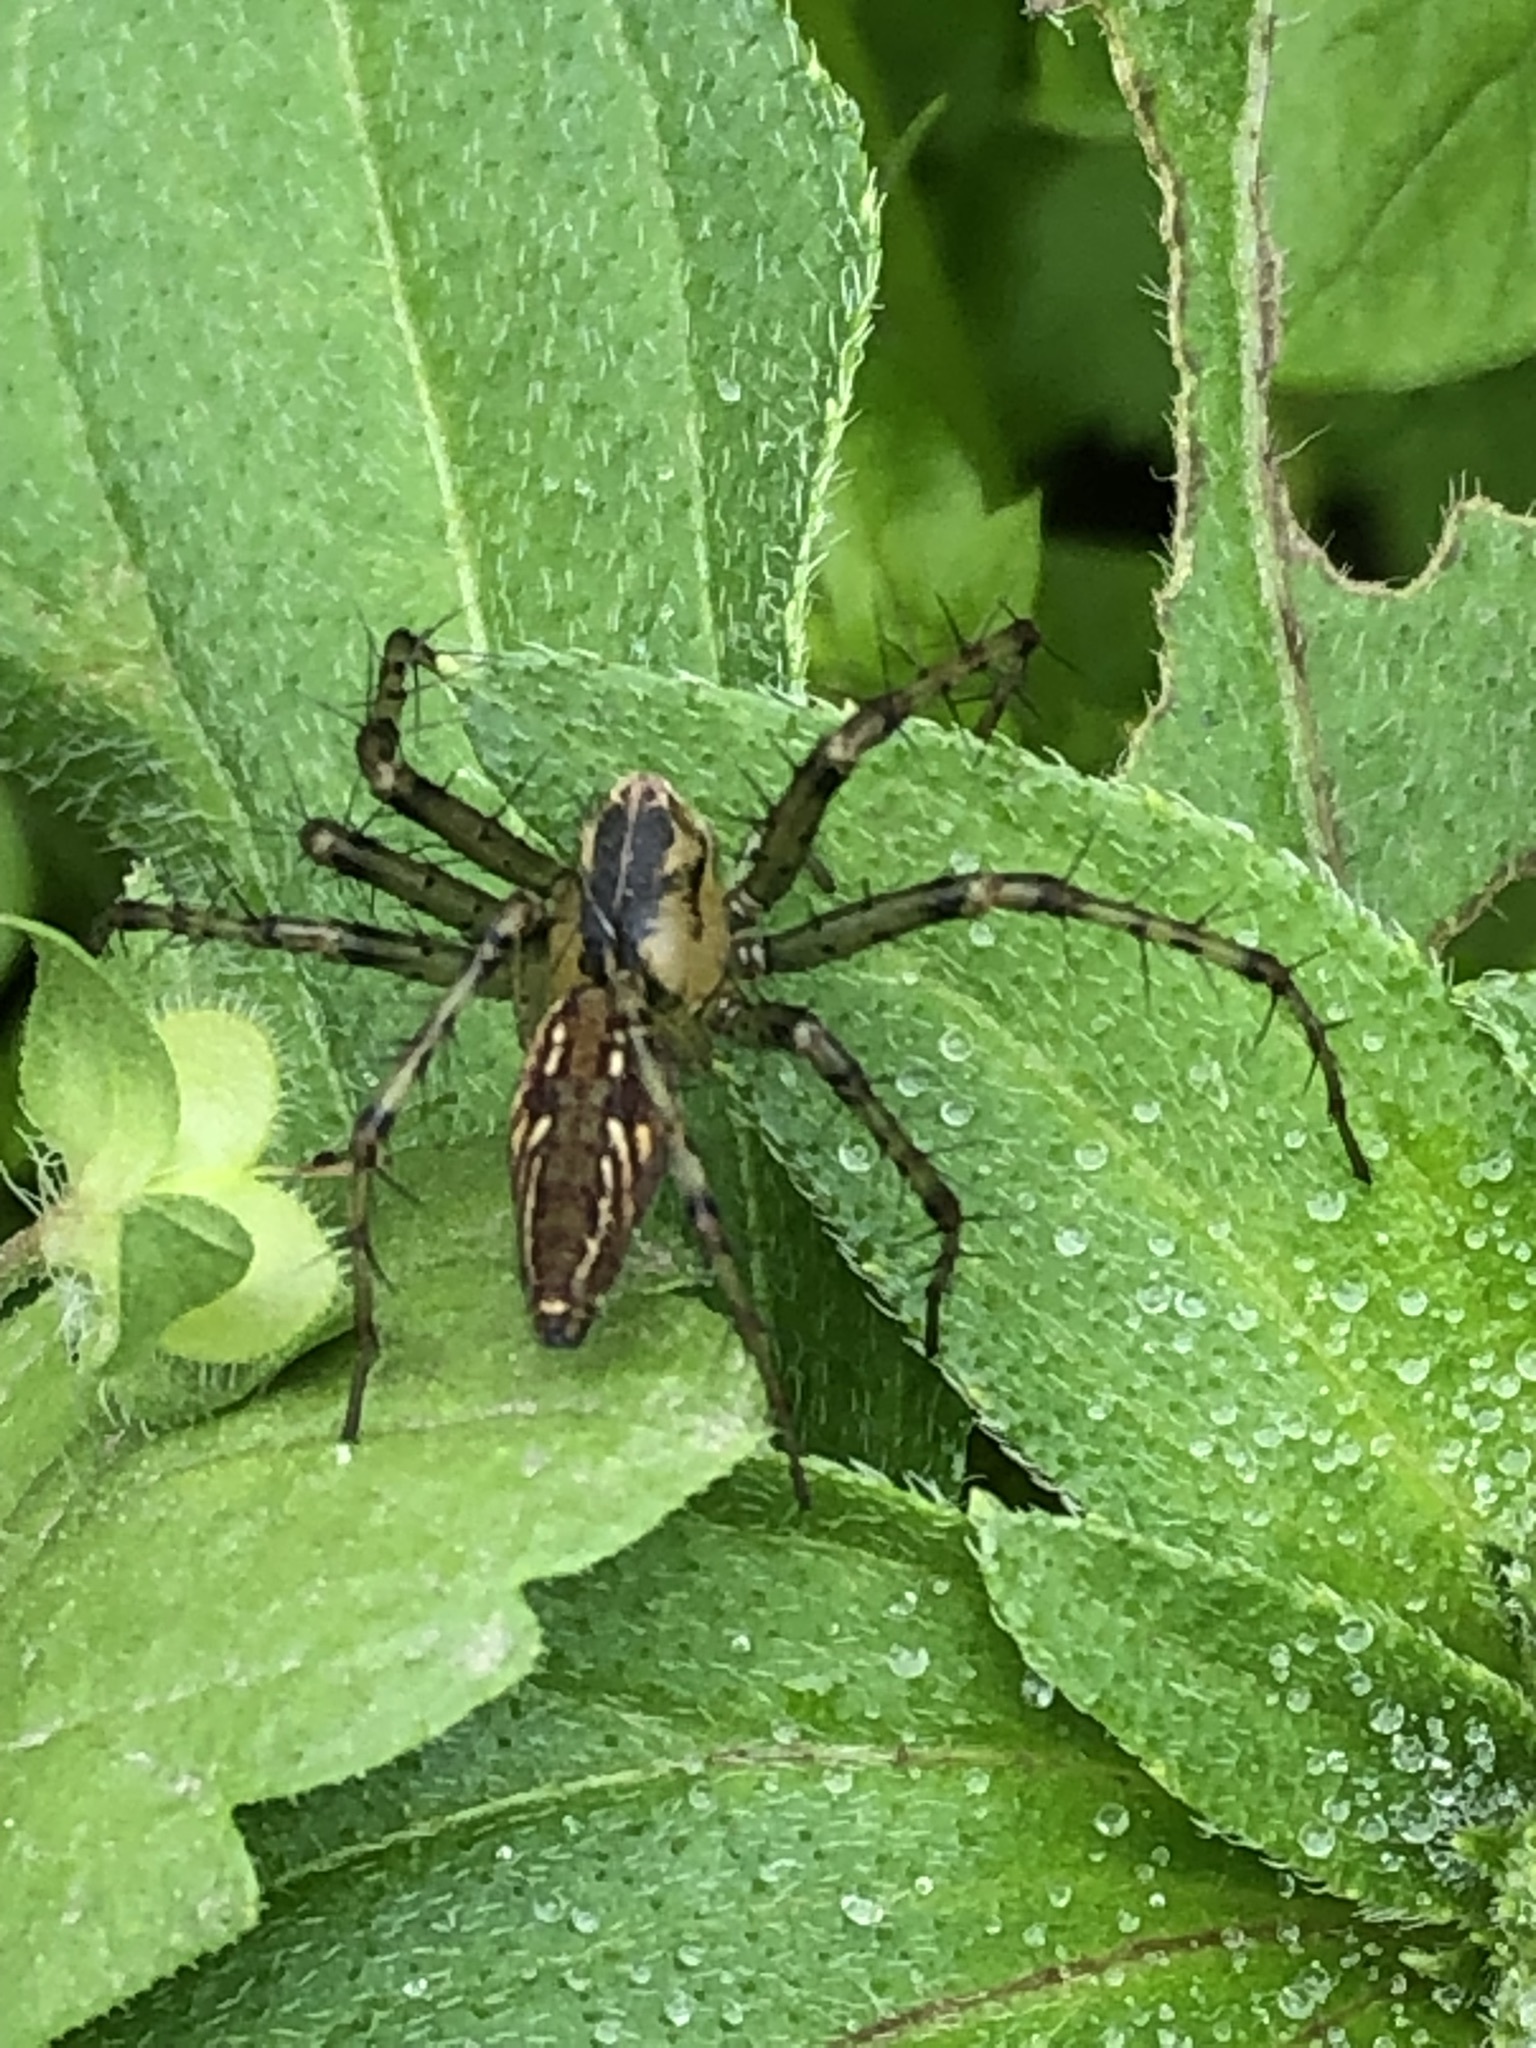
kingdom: Animalia
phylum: Arthropoda
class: Arachnida
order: Araneae
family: Oxyopidae
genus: Peucetia
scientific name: Peucetia flava
